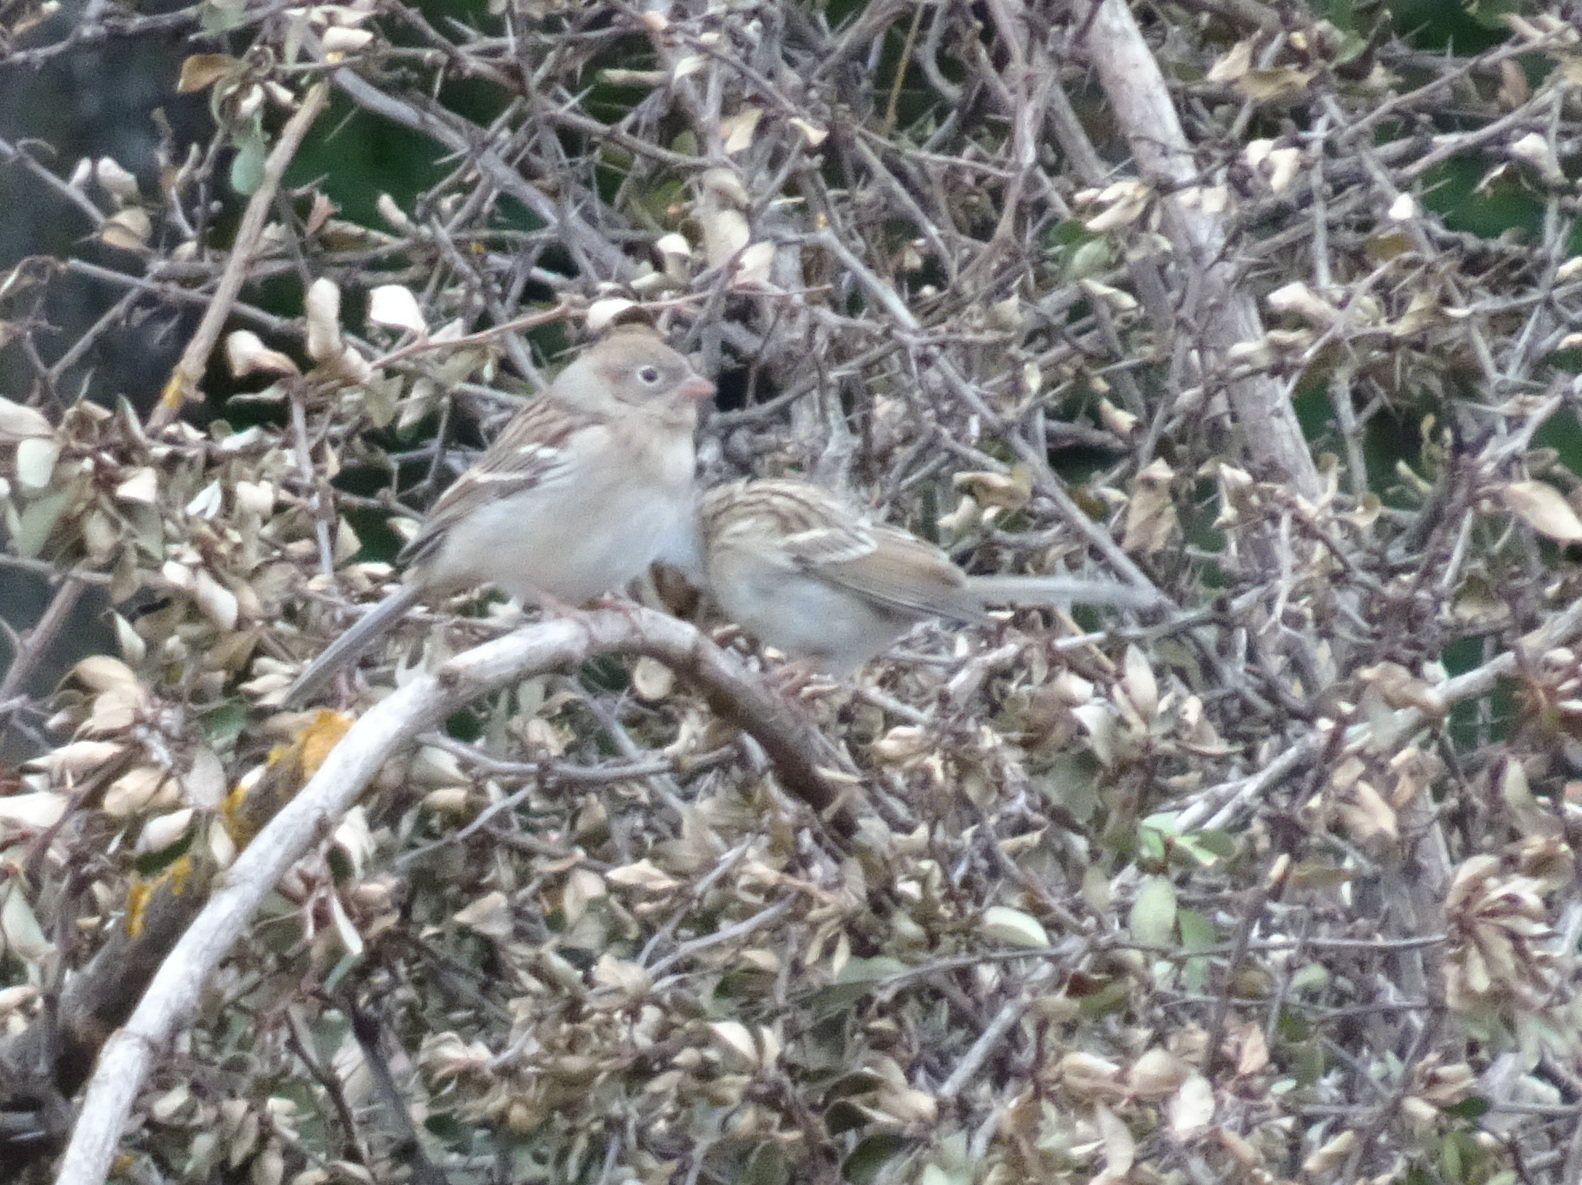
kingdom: Animalia
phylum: Chordata
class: Aves
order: Passeriformes
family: Passerellidae
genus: Spizella
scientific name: Spizella pusilla
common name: Field sparrow
